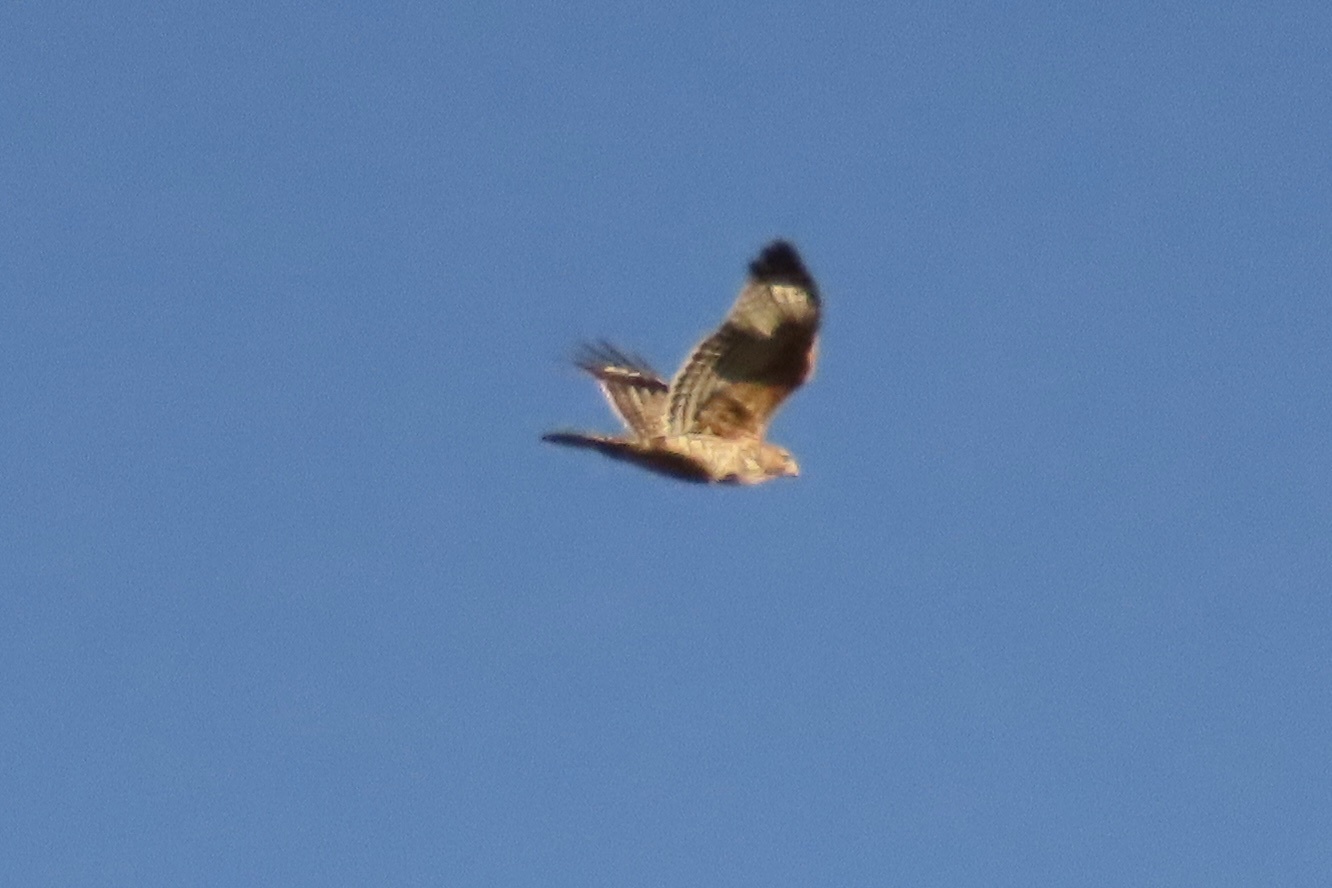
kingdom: Animalia
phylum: Chordata
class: Aves
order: Accipitriformes
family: Accipitridae
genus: Buteo
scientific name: Buteo lineatus
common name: Red-shouldered hawk
